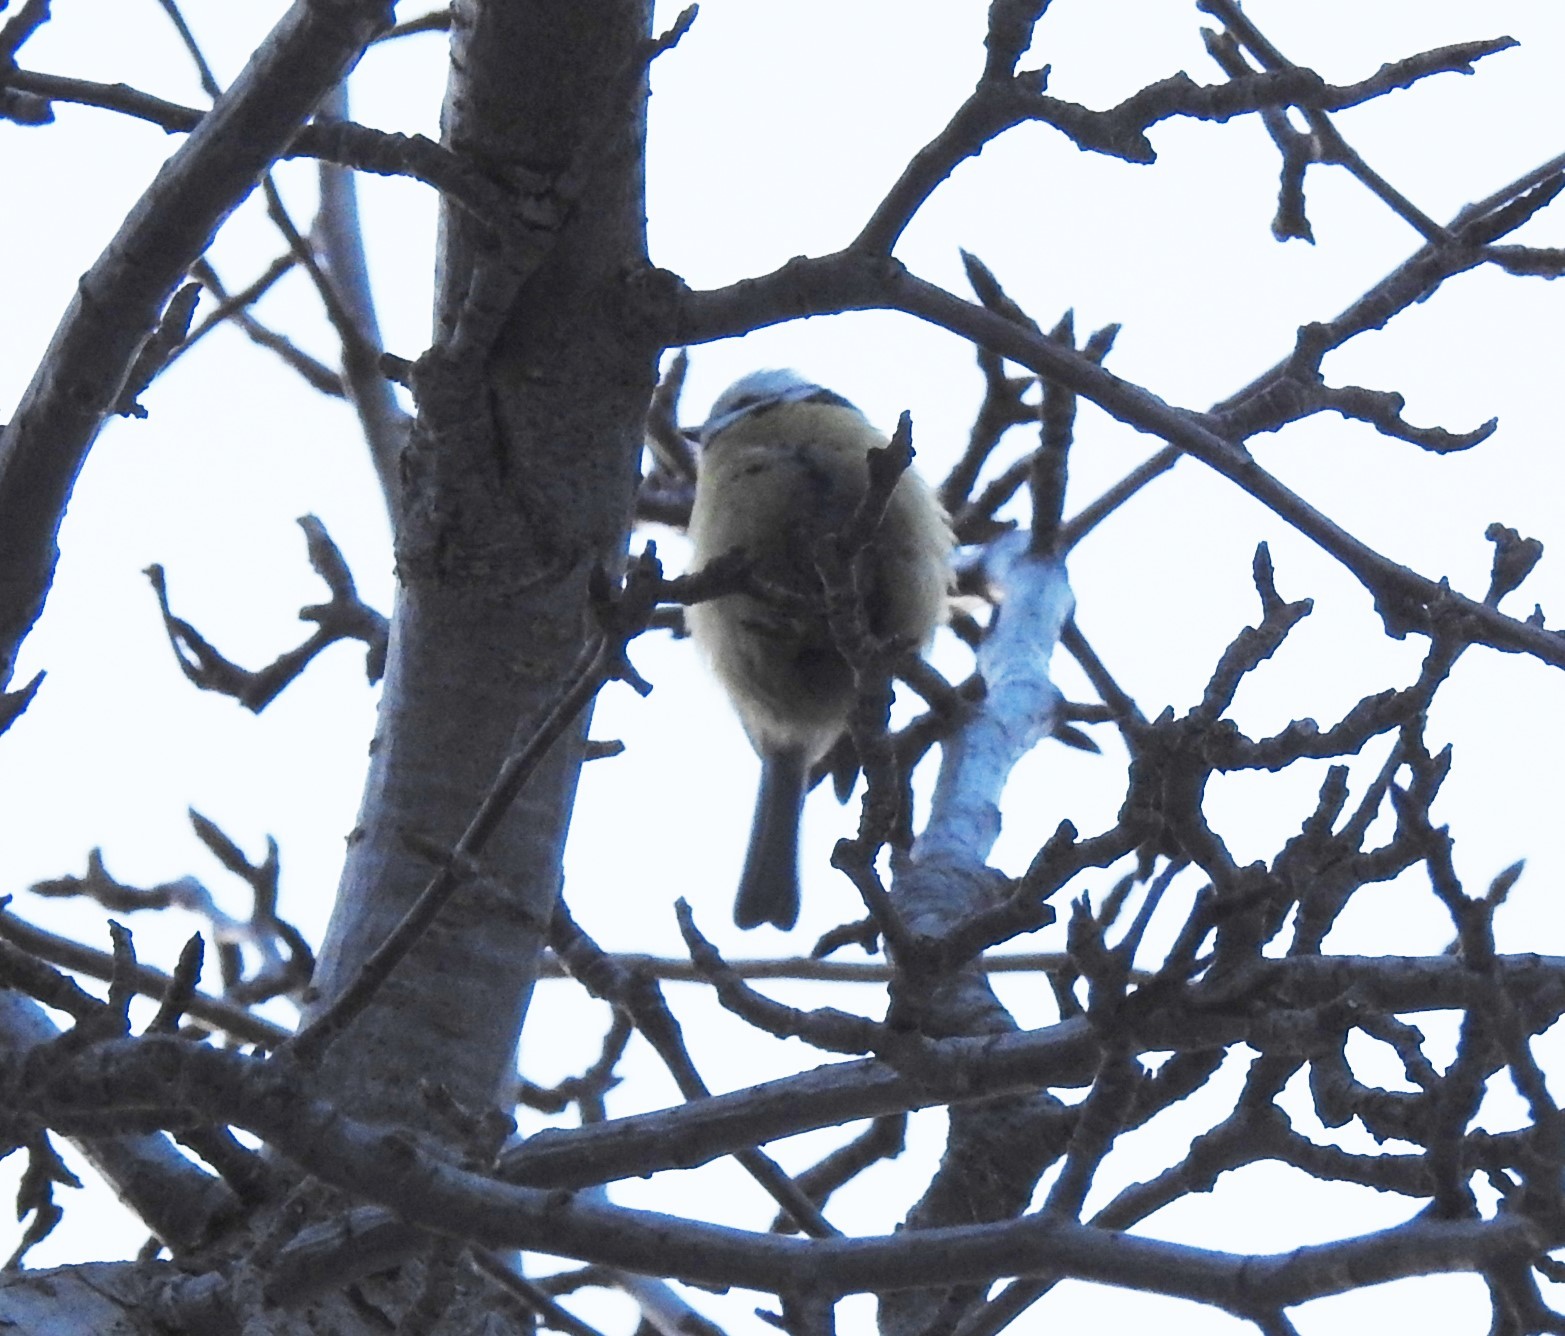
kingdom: Animalia
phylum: Chordata
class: Aves
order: Passeriformes
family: Paridae
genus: Cyanistes
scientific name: Cyanistes caeruleus
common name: Eurasian blue tit
